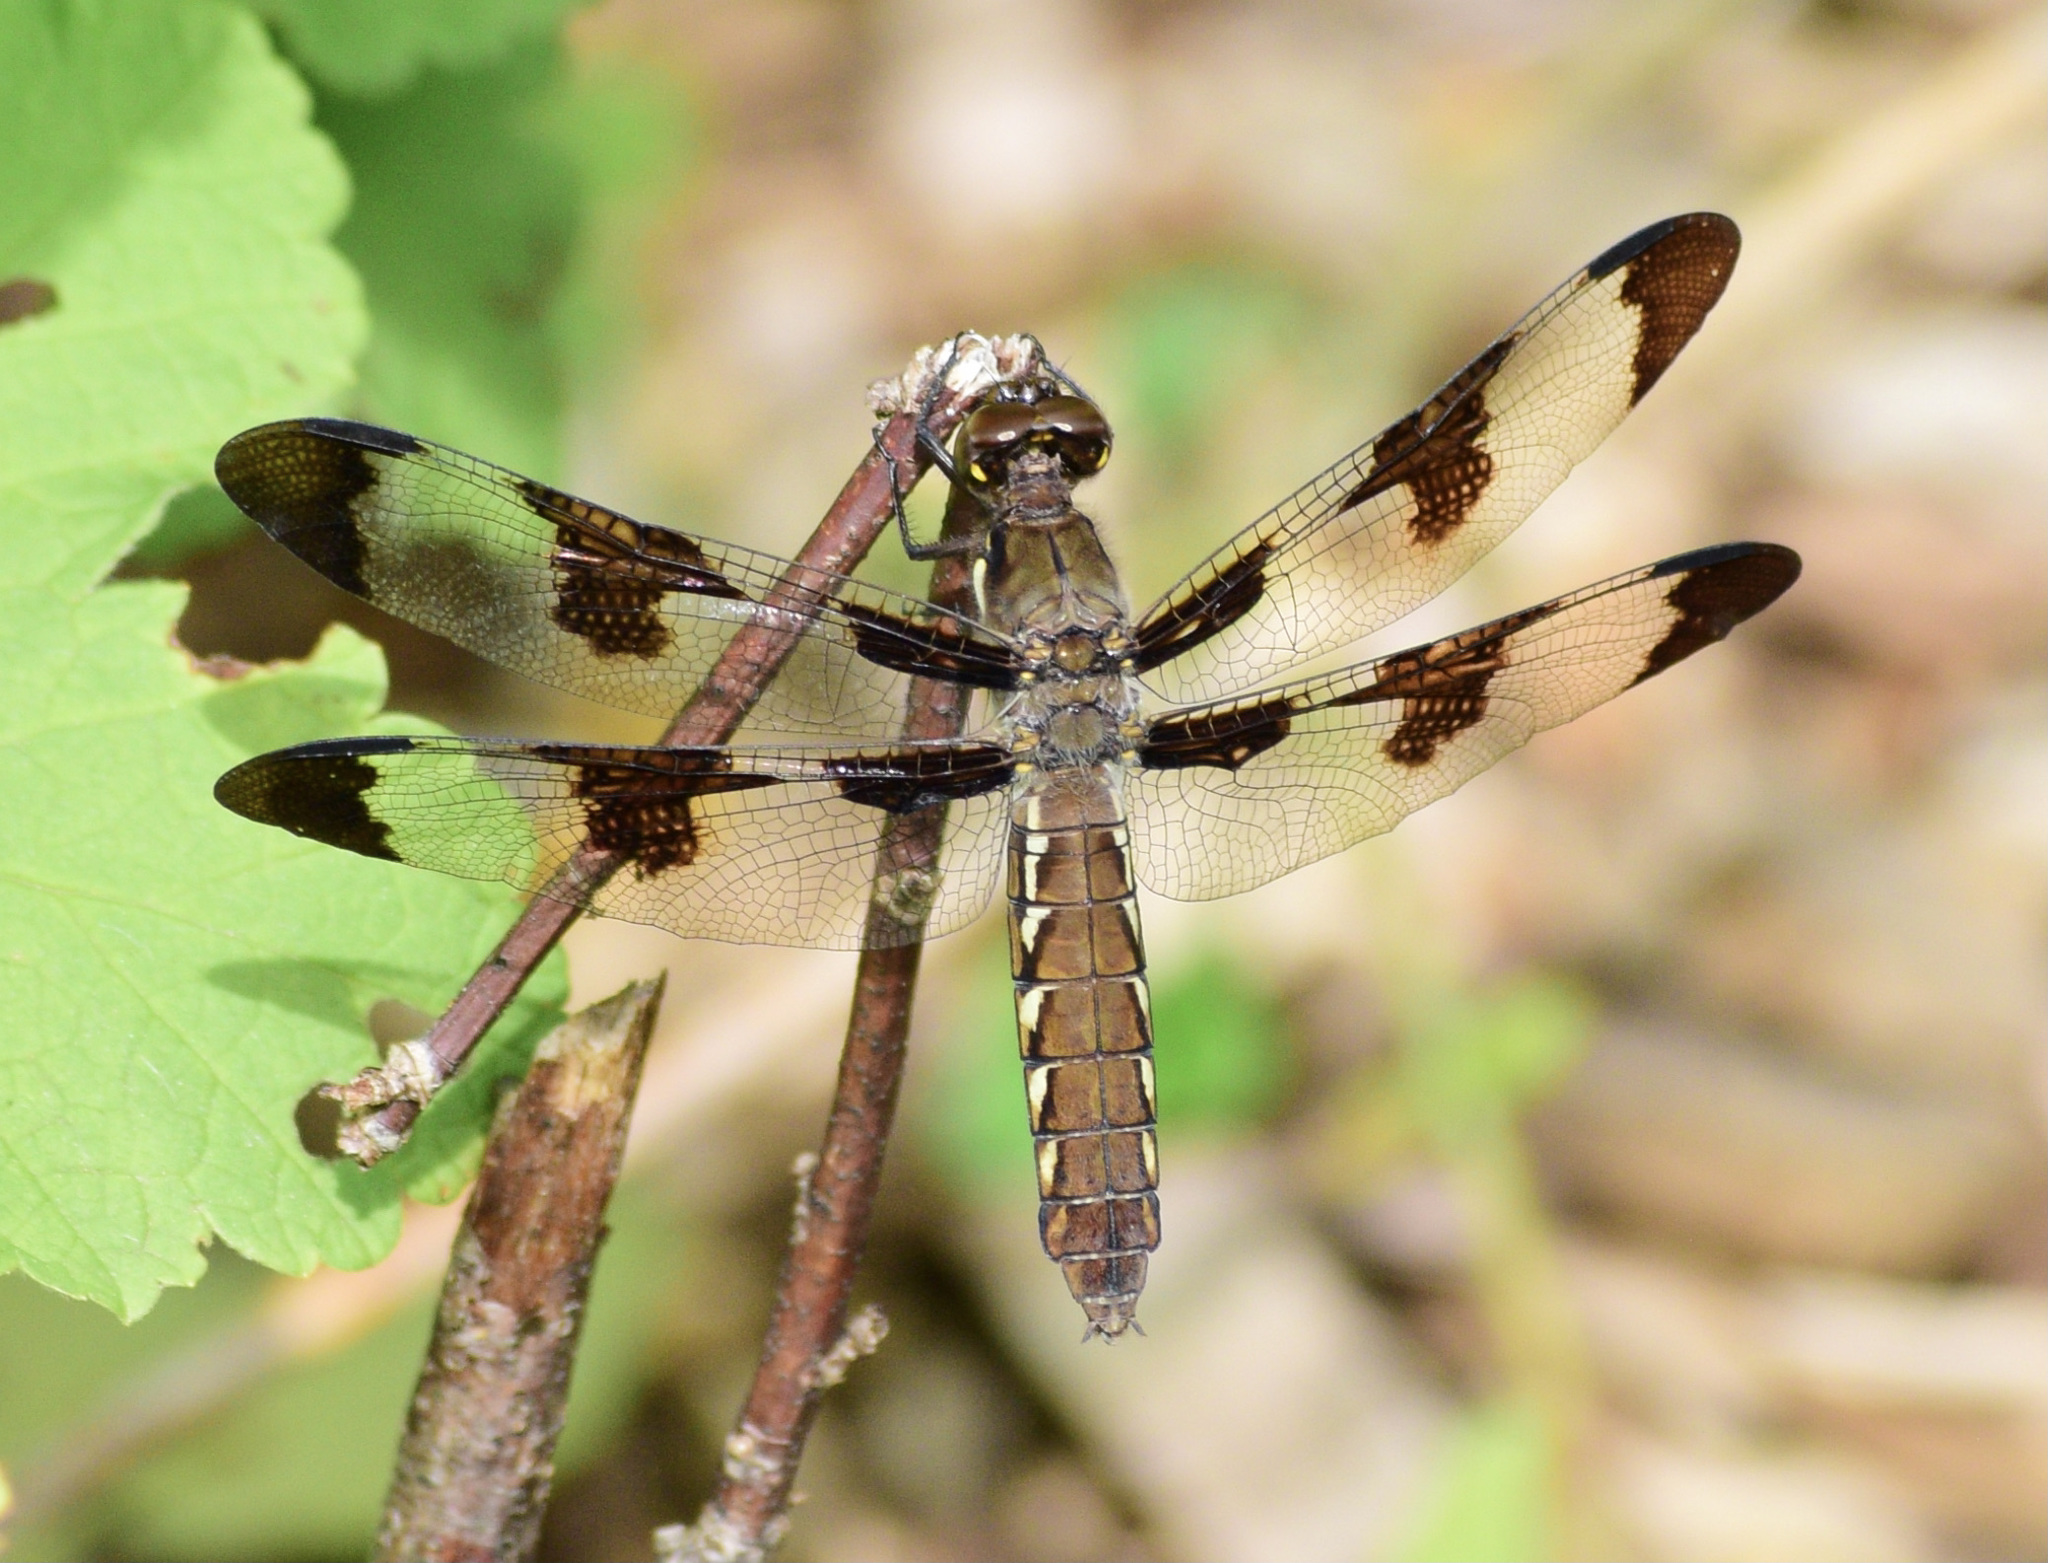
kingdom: Animalia
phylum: Arthropoda
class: Insecta
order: Odonata
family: Libellulidae
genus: Plathemis
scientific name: Plathemis lydia
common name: Common whitetail
